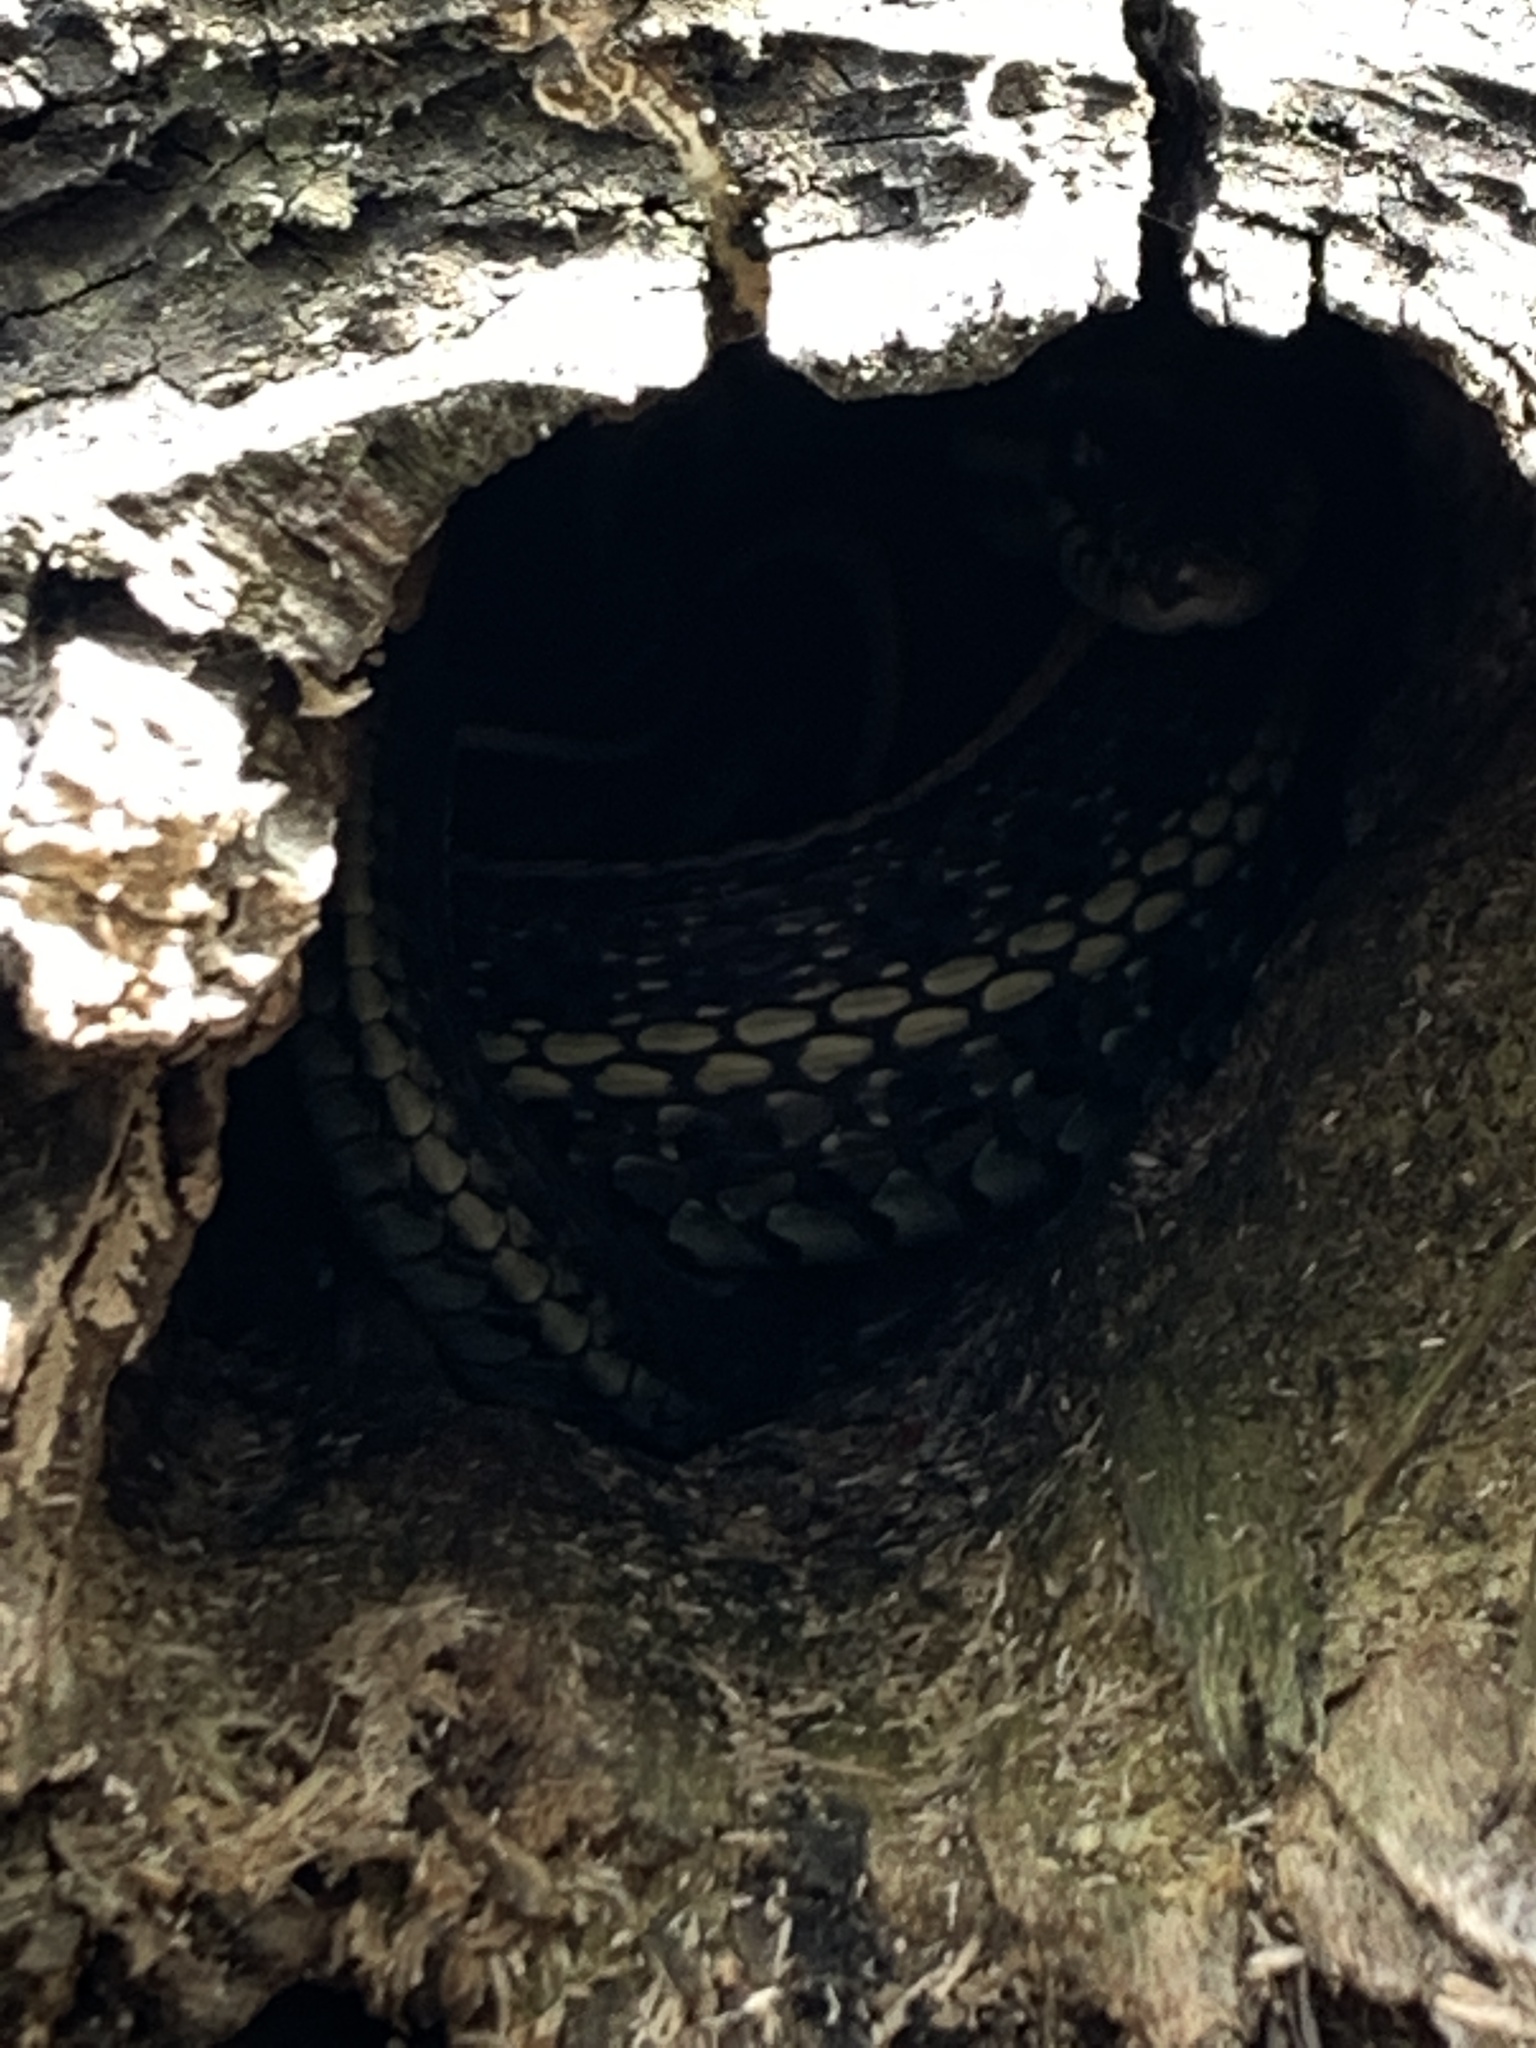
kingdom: Animalia
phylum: Chordata
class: Squamata
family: Colubridae
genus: Thamnophis
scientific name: Thamnophis radix
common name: Plains garter snake
